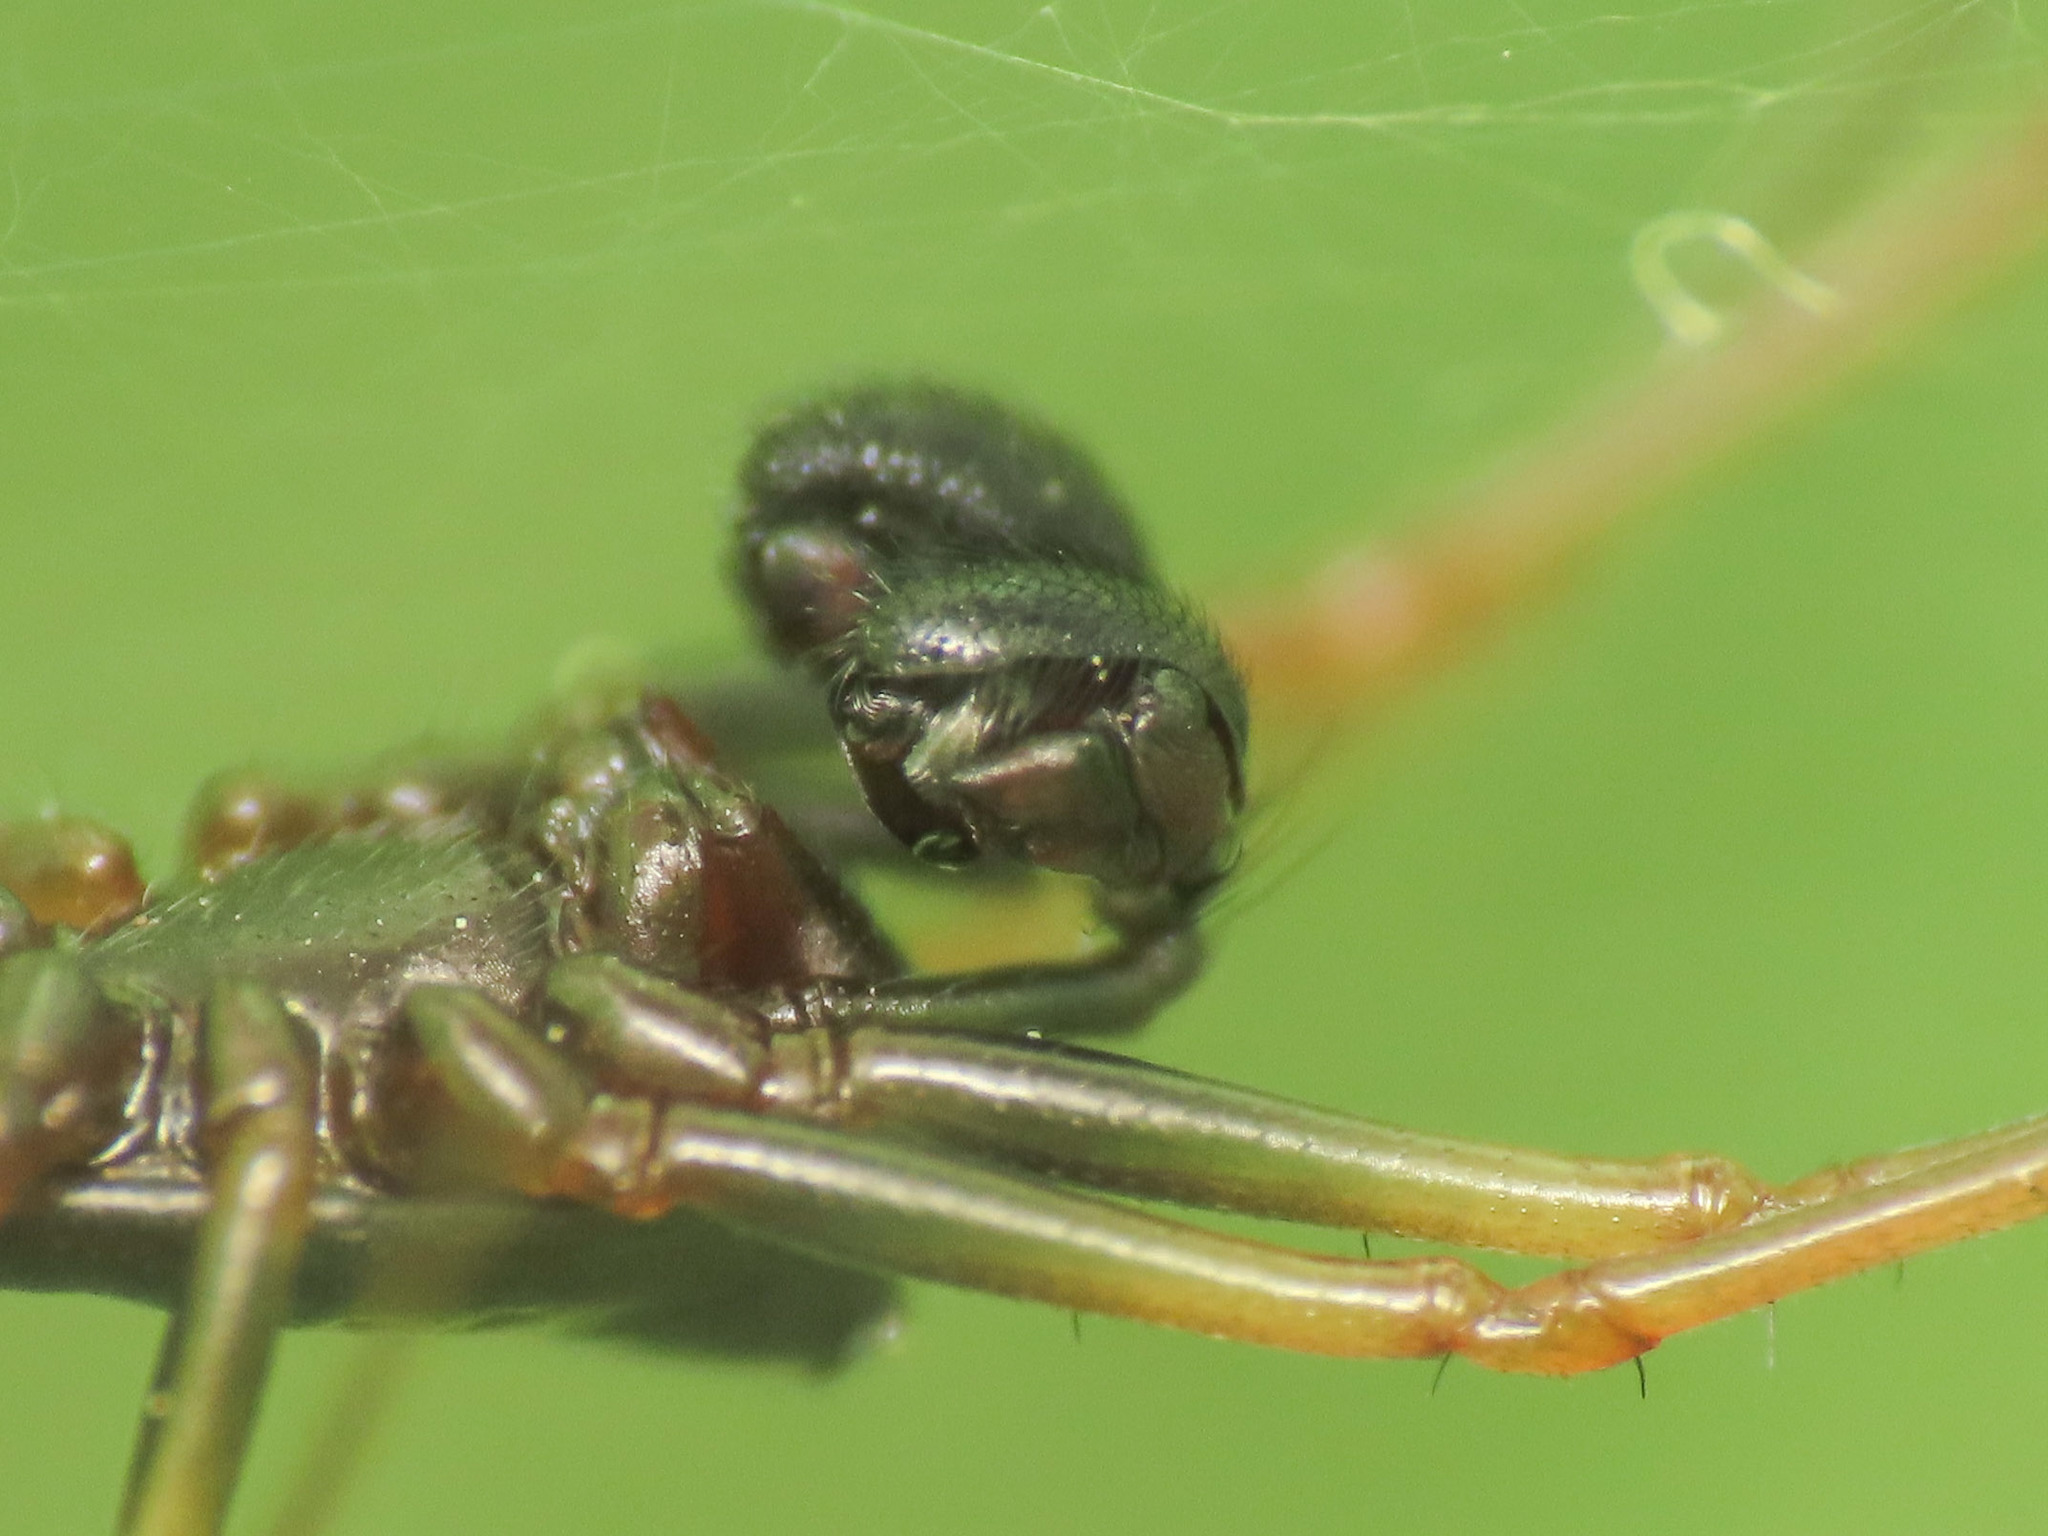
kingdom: Animalia
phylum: Arthropoda
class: Arachnida
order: Araneae
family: Linyphiidae
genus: Neriene
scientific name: Neriene furtiva
